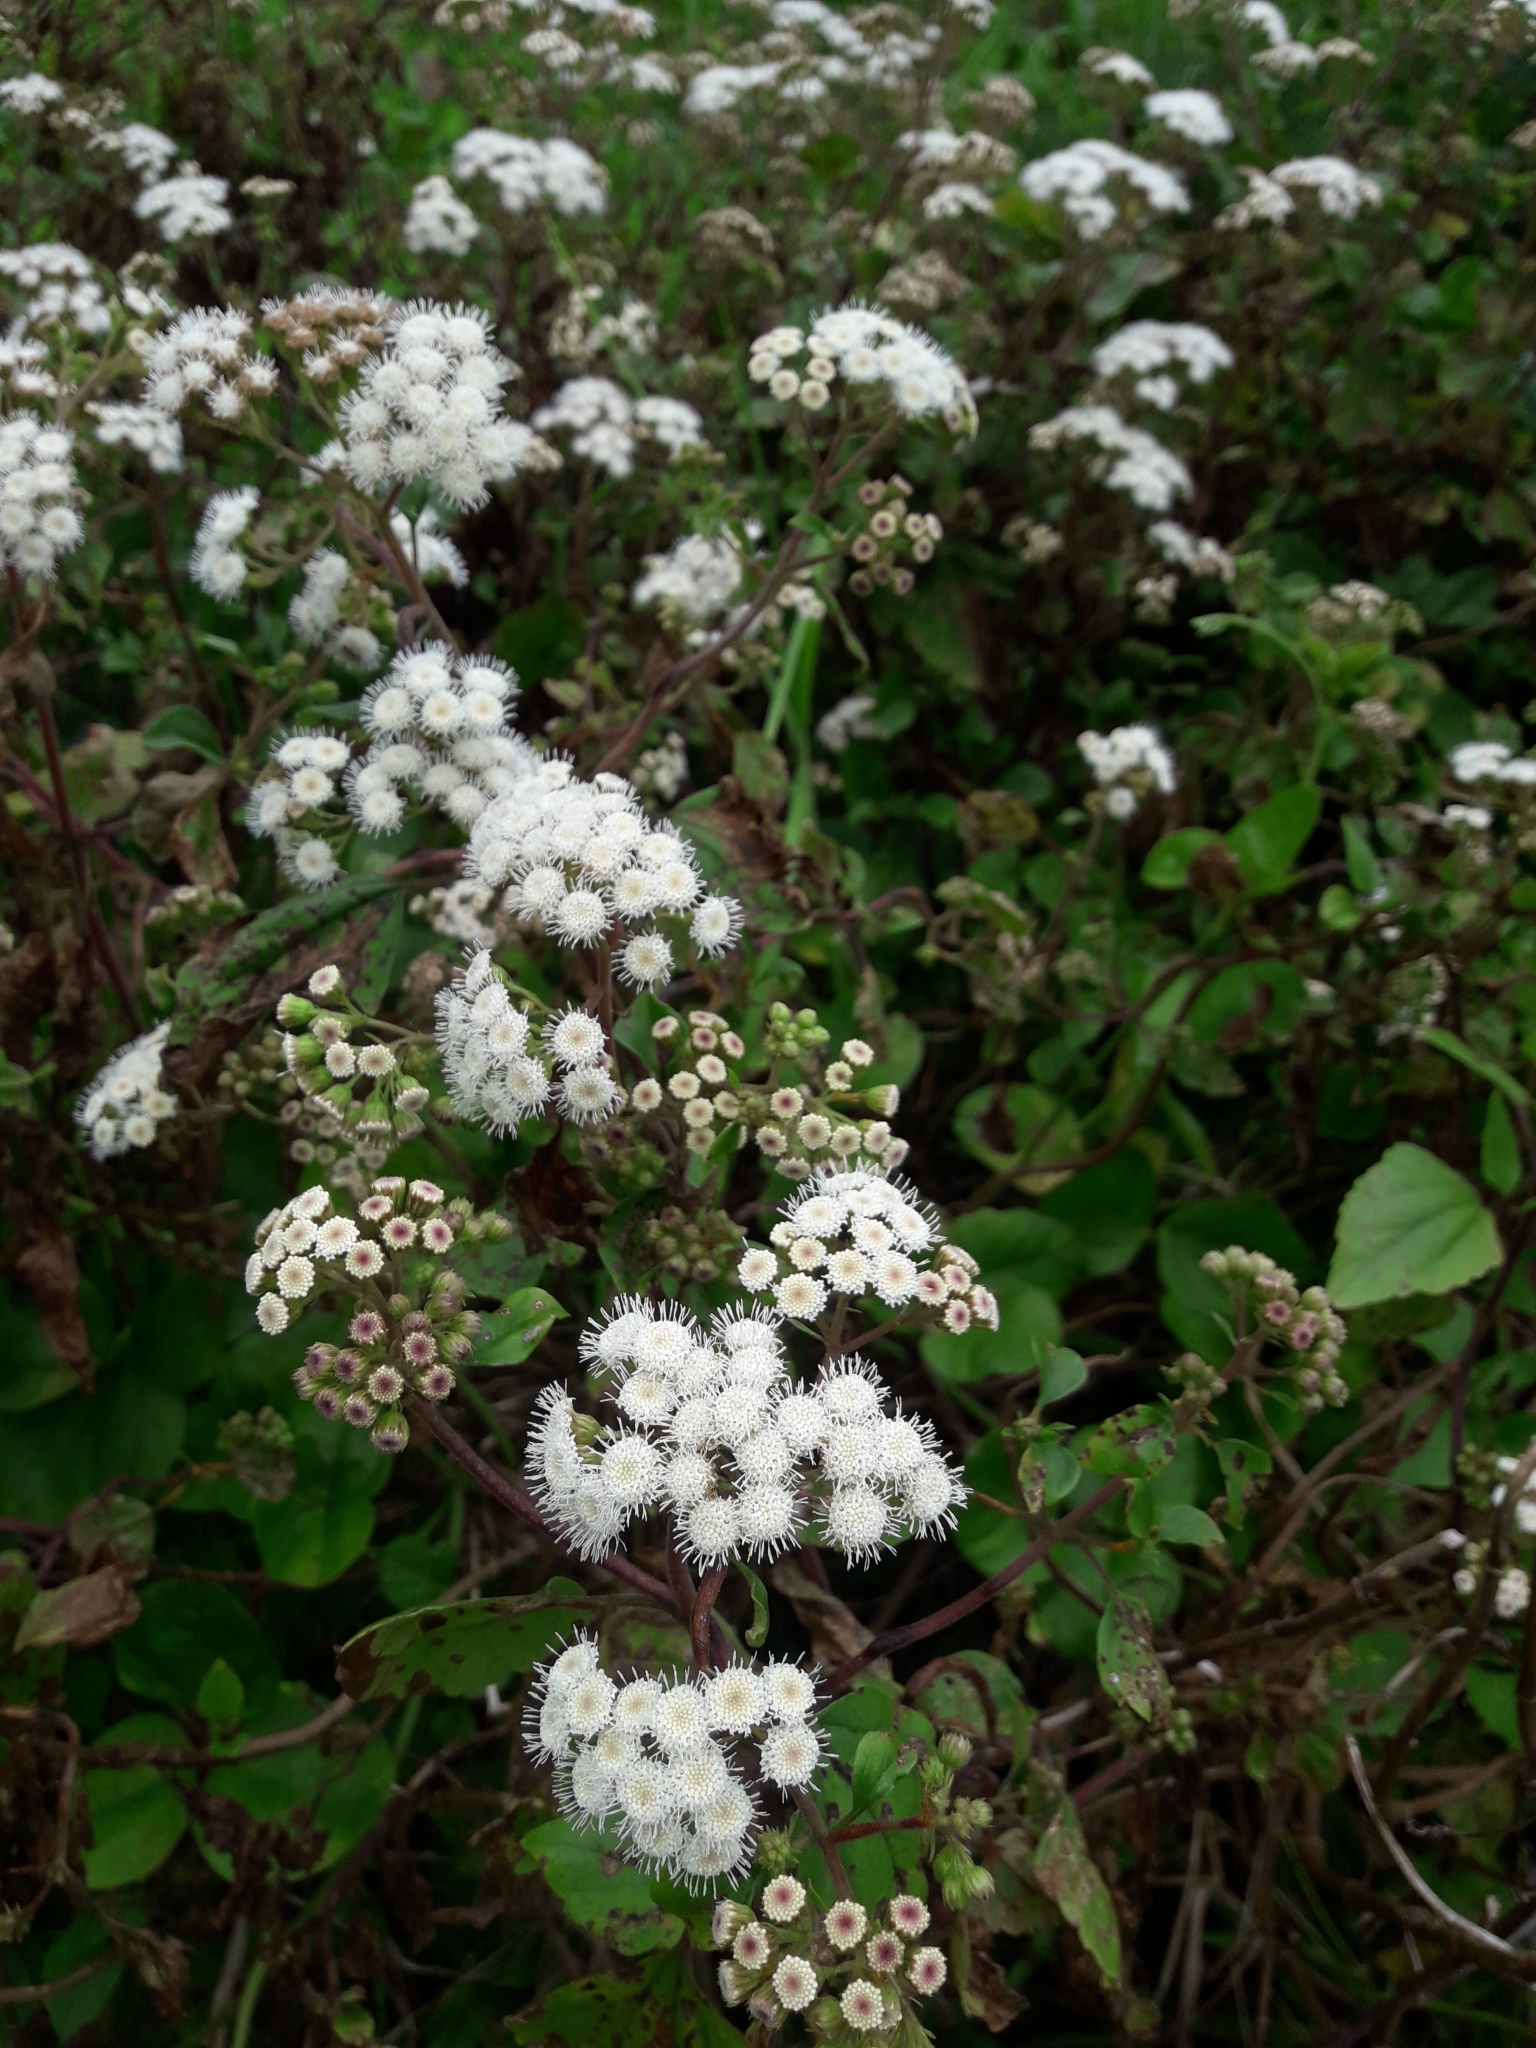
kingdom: Plantae
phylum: Tracheophyta
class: Magnoliopsida
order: Asterales
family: Asteraceae
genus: Ageratina
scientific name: Ageratina adenophora
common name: Sticky snakeroot
